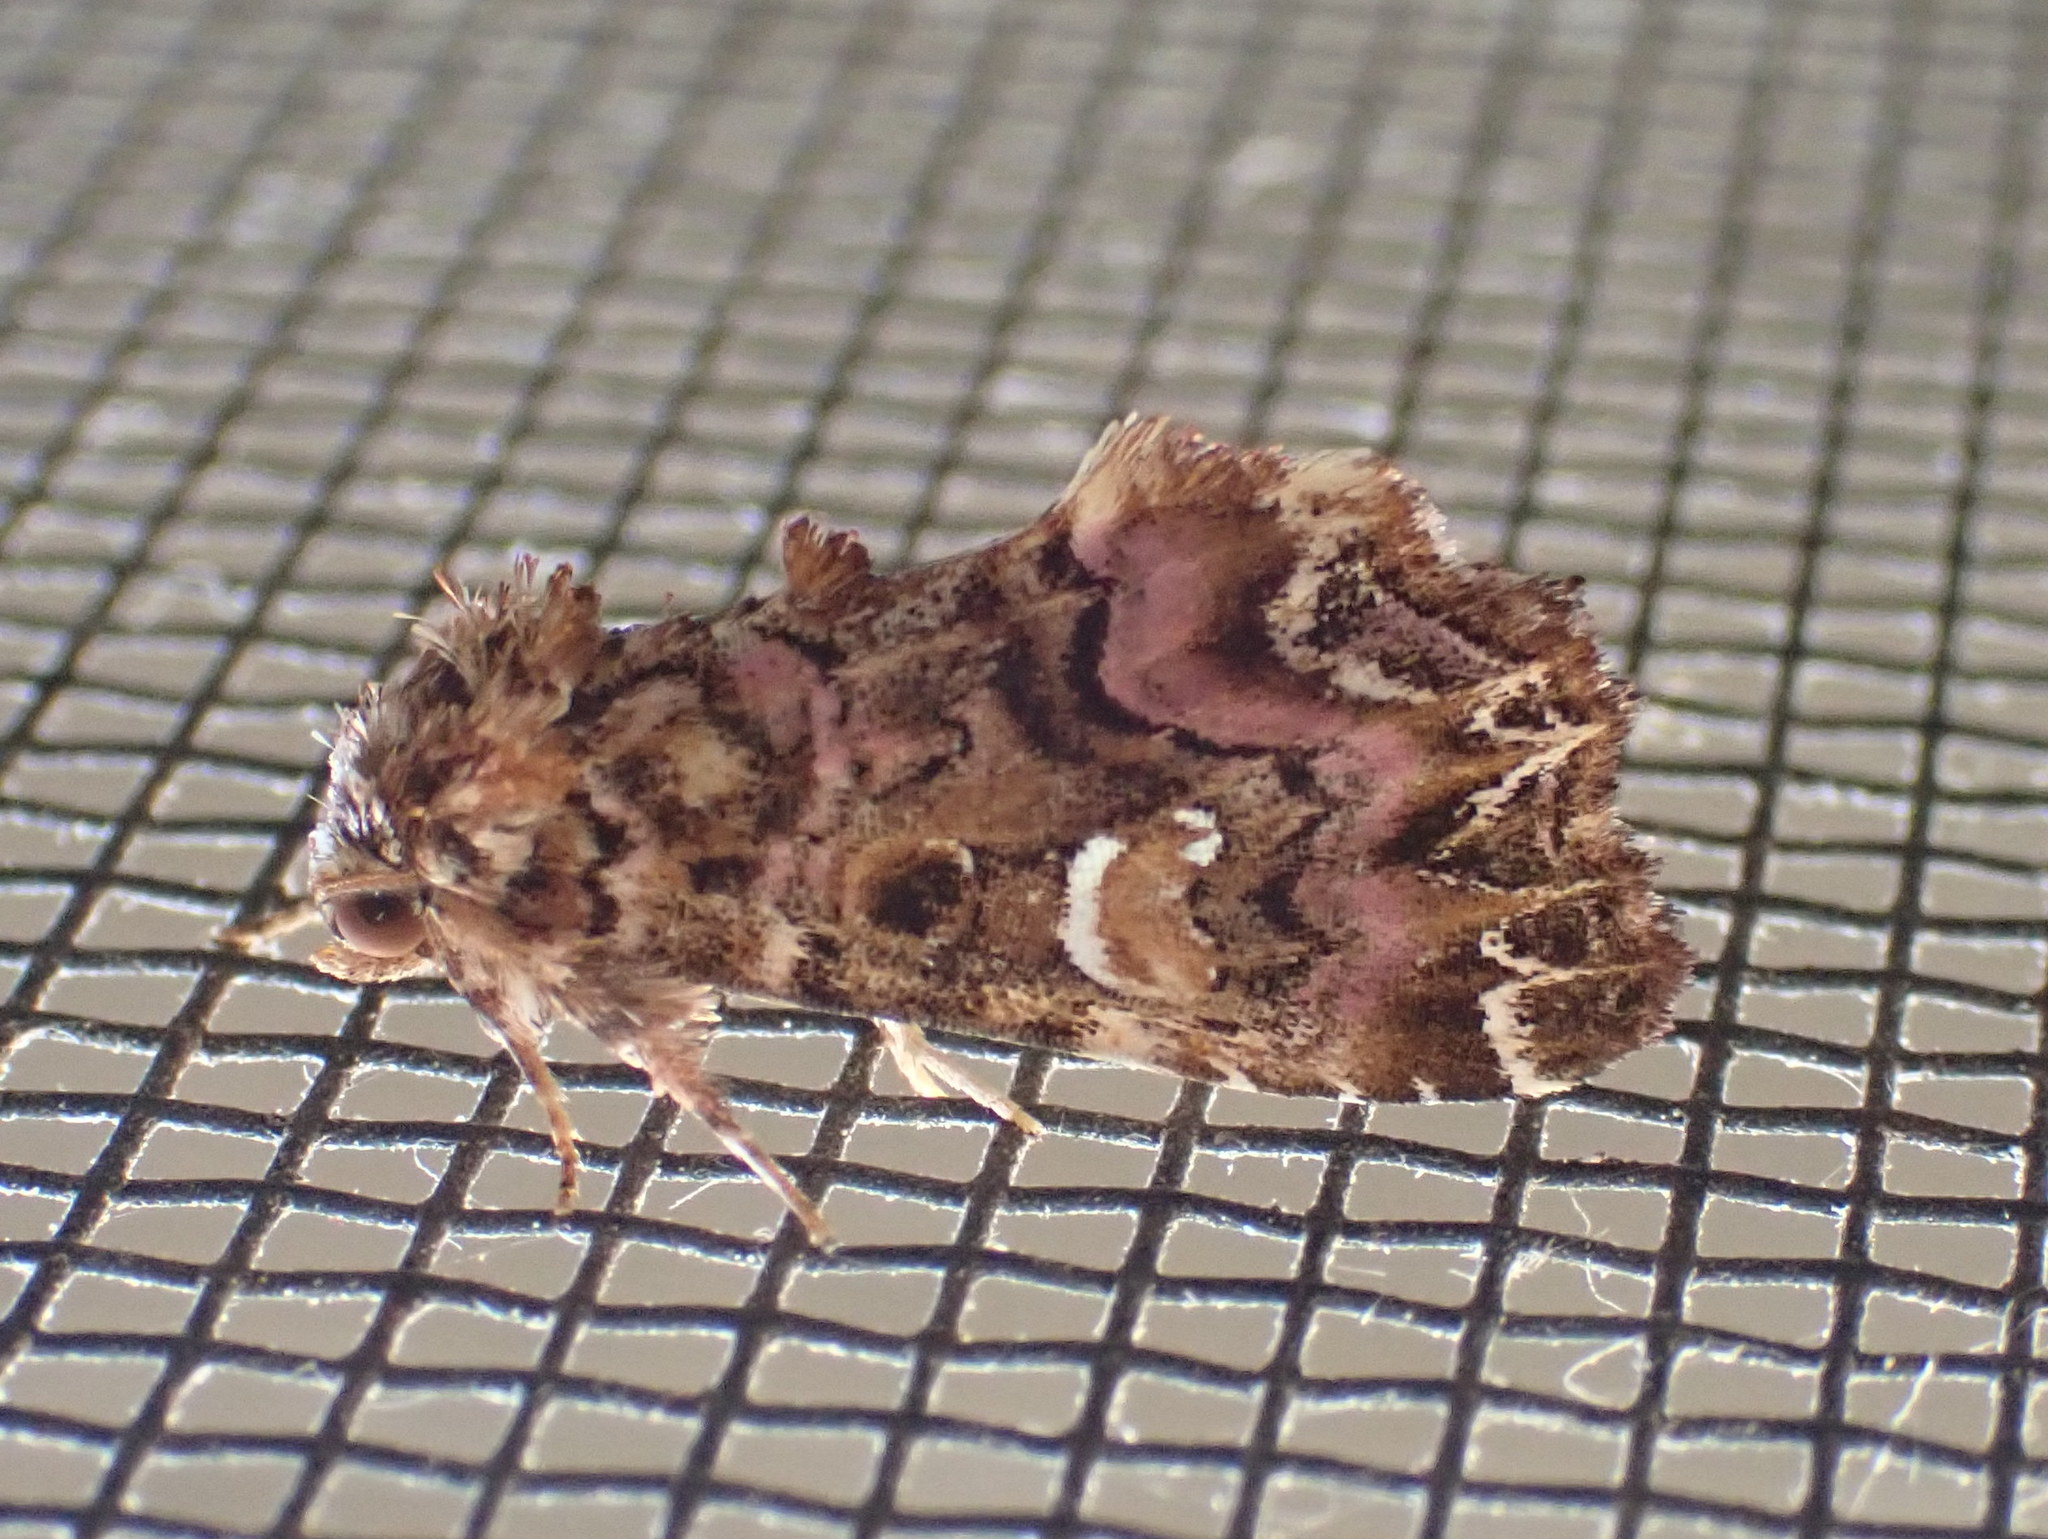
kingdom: Animalia
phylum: Arthropoda
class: Insecta
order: Lepidoptera
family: Noctuidae
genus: Callopistria
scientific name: Callopistria mollissima
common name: Pink-shaded fern moth
